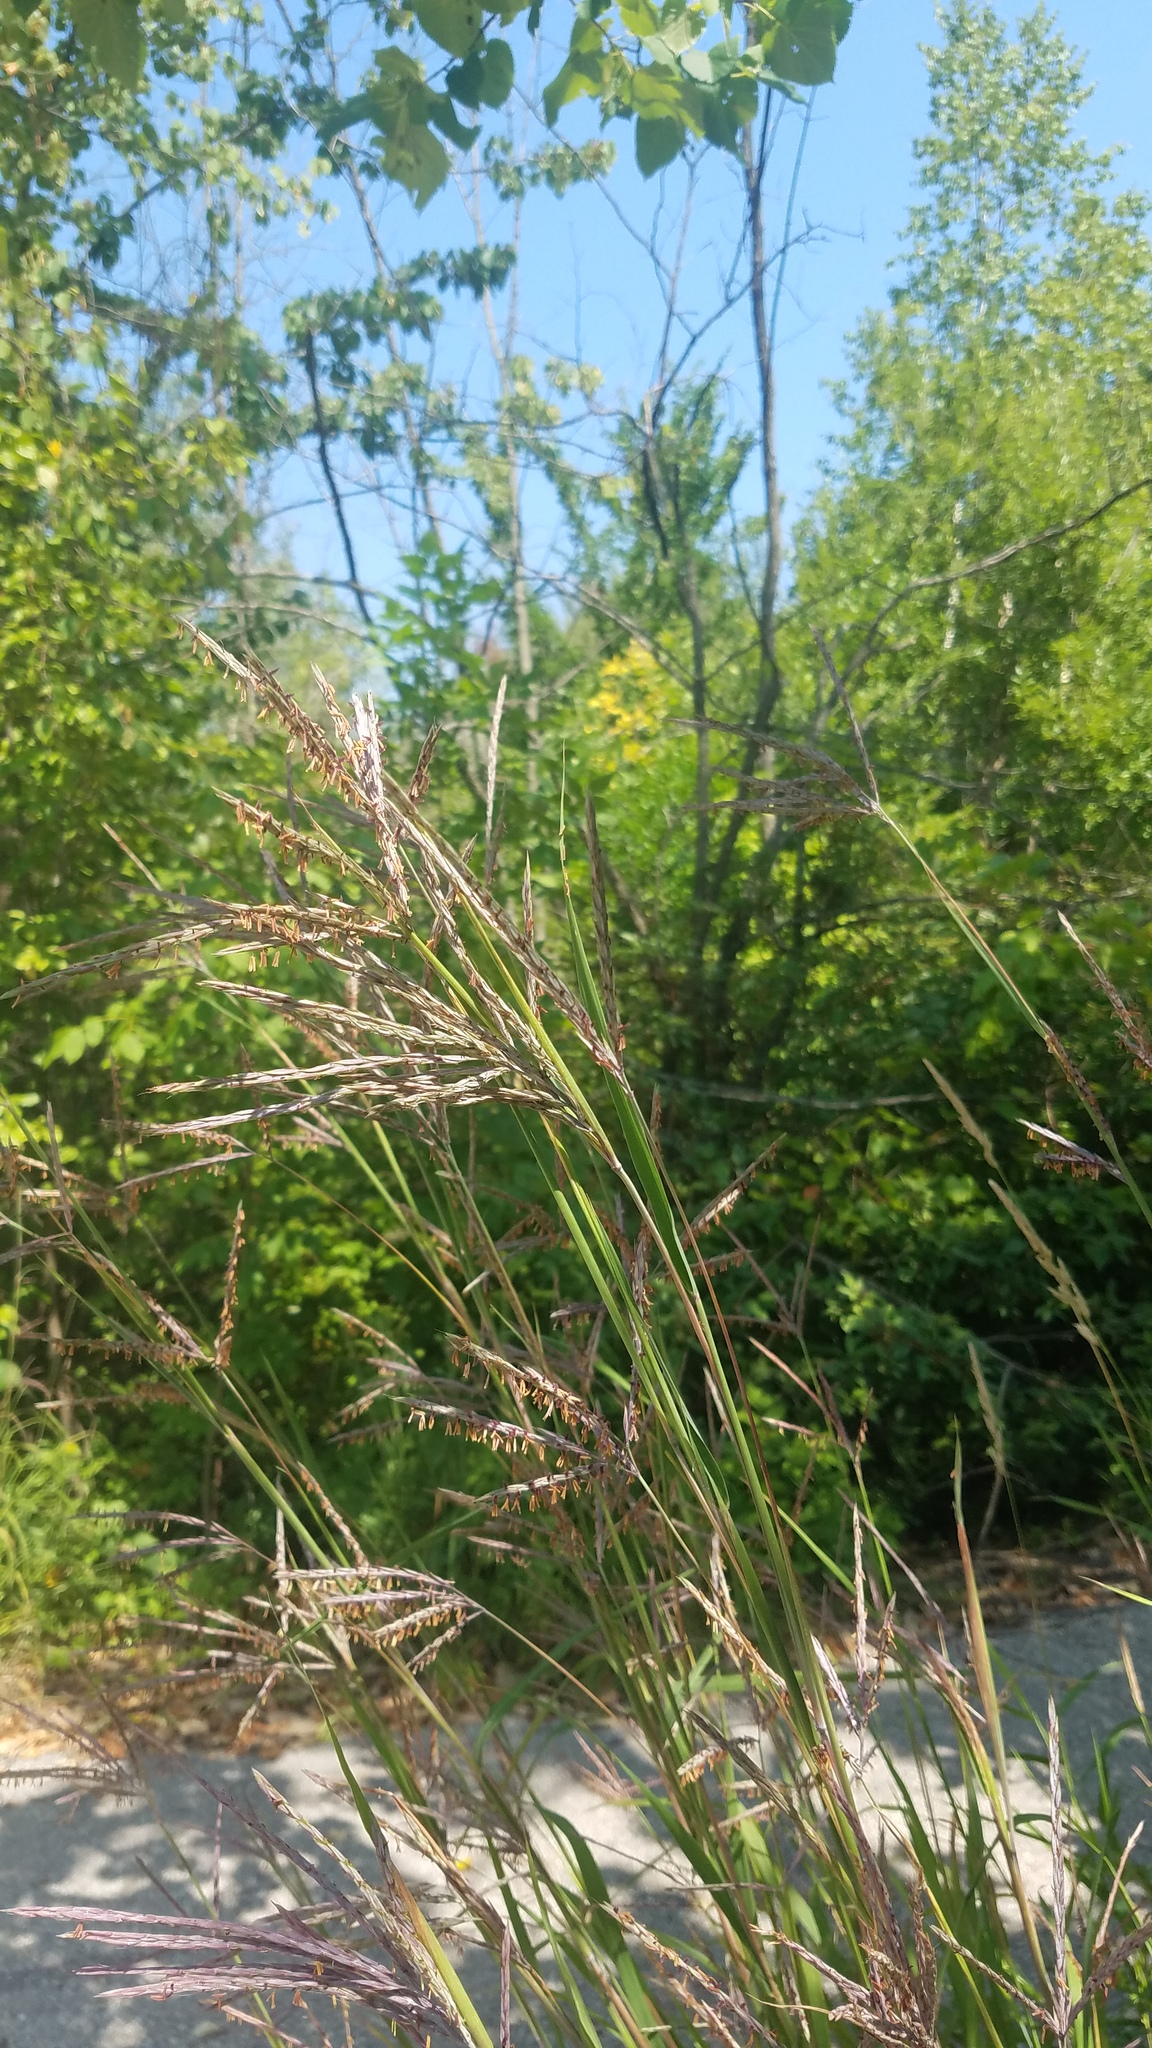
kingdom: Plantae
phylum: Tracheophyta
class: Liliopsida
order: Poales
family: Poaceae
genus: Andropogon
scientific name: Andropogon gerardi
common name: Big bluestem
